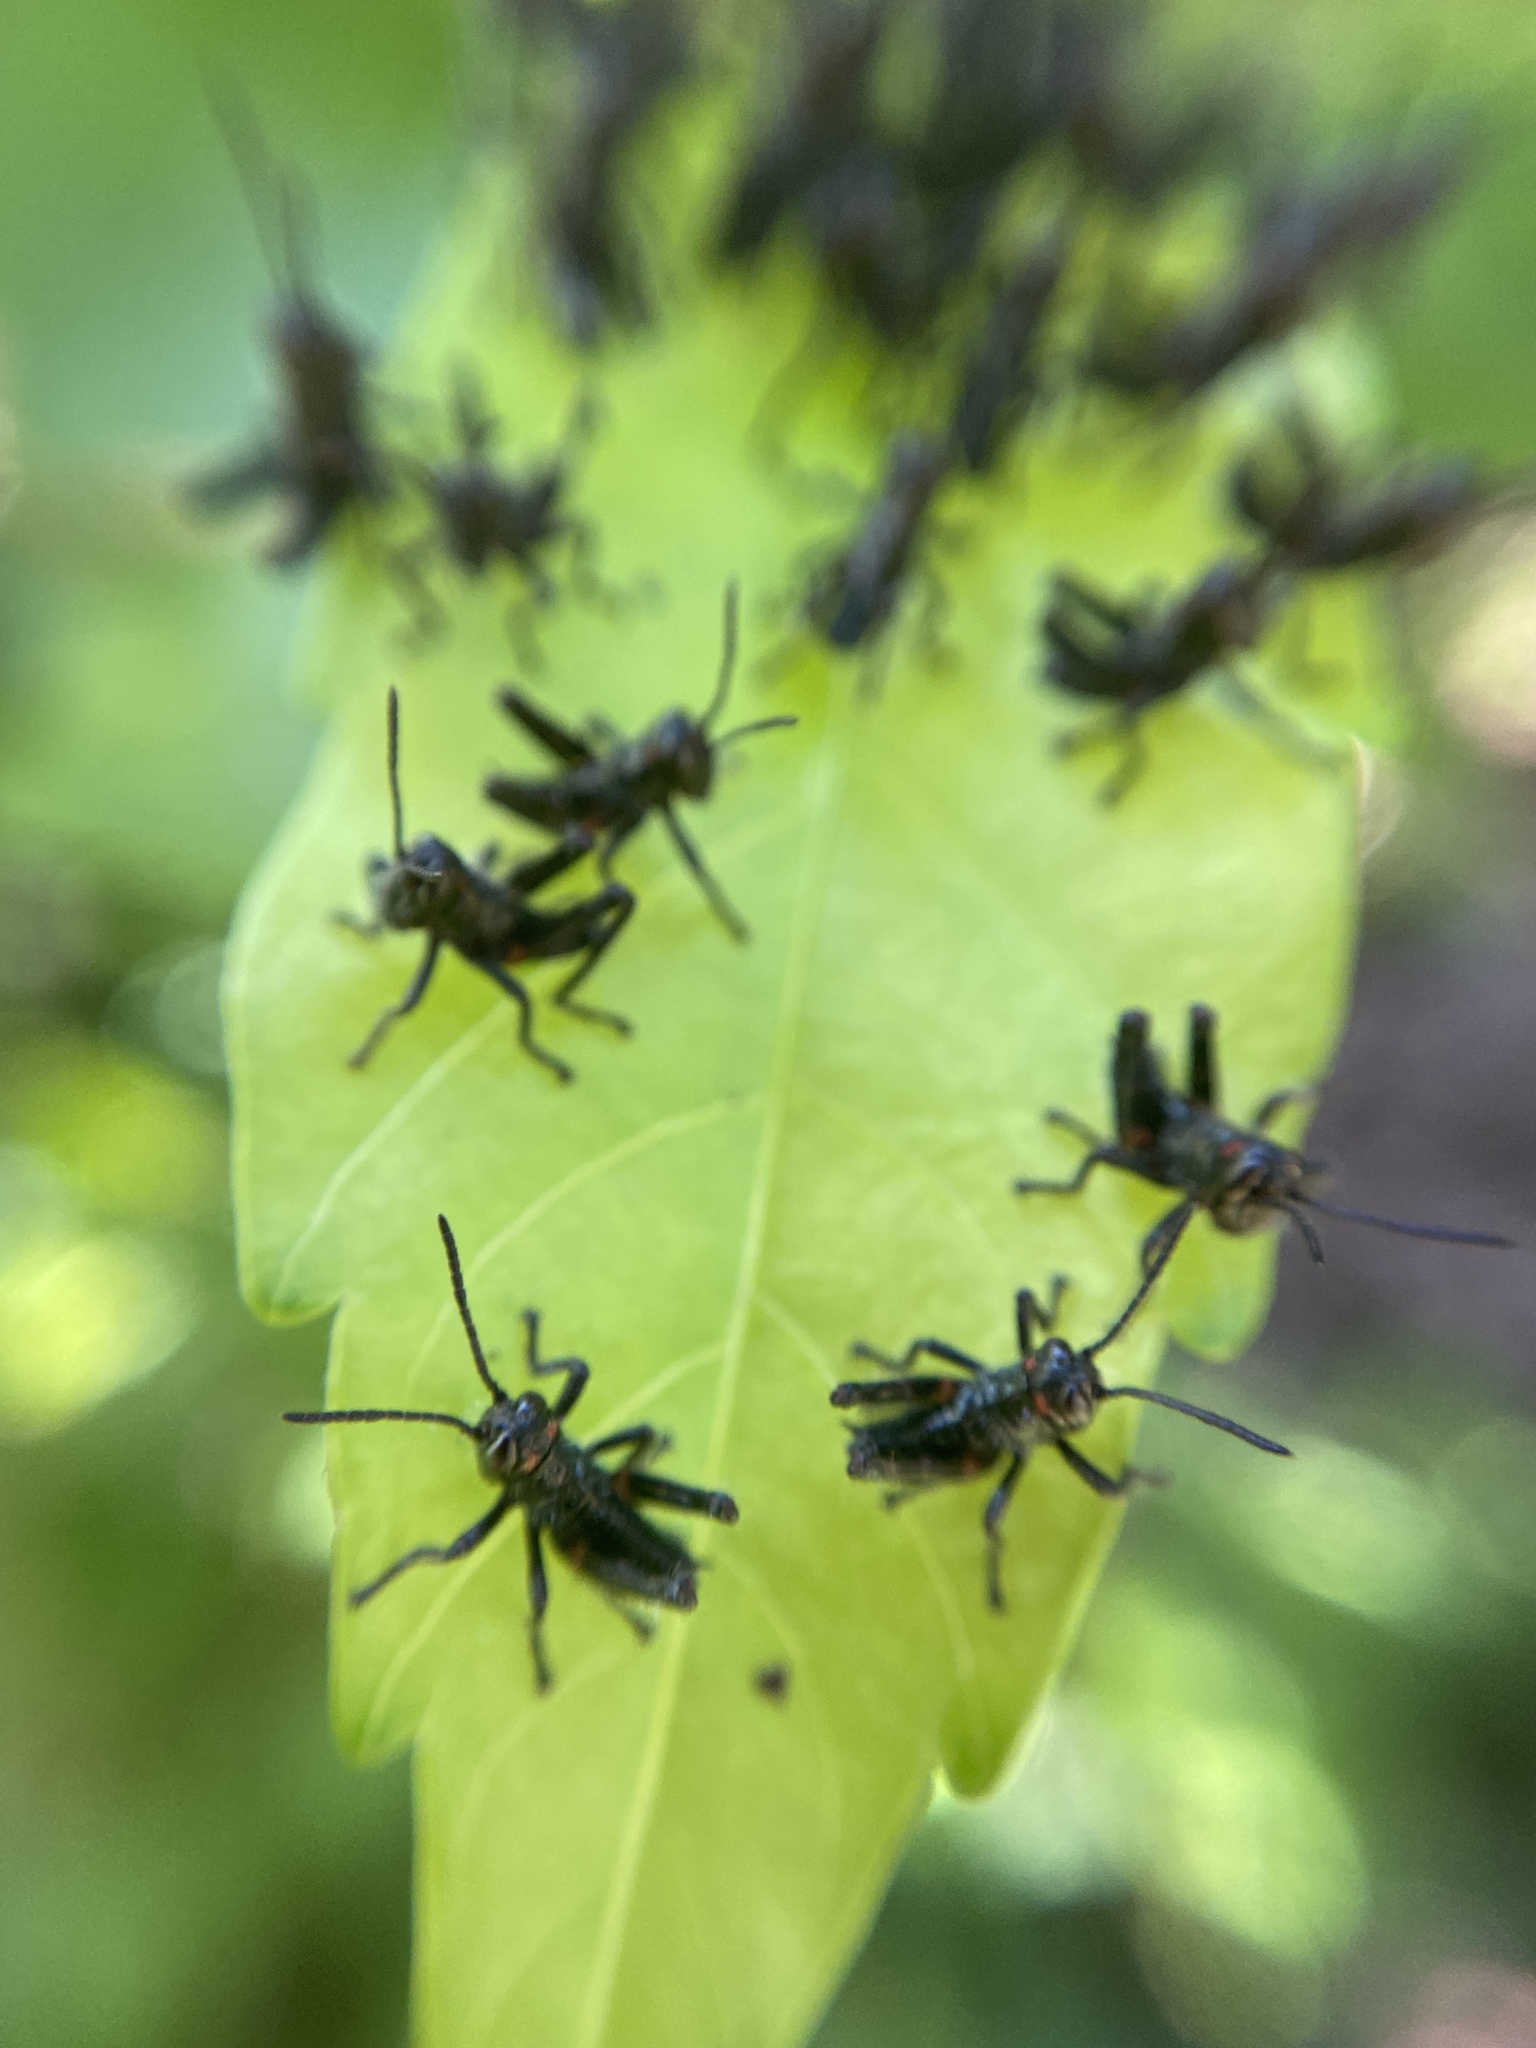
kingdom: Animalia
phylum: Arthropoda
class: Insecta
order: Orthoptera
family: Romaleidae
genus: Chromacris
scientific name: Chromacris speciosa
